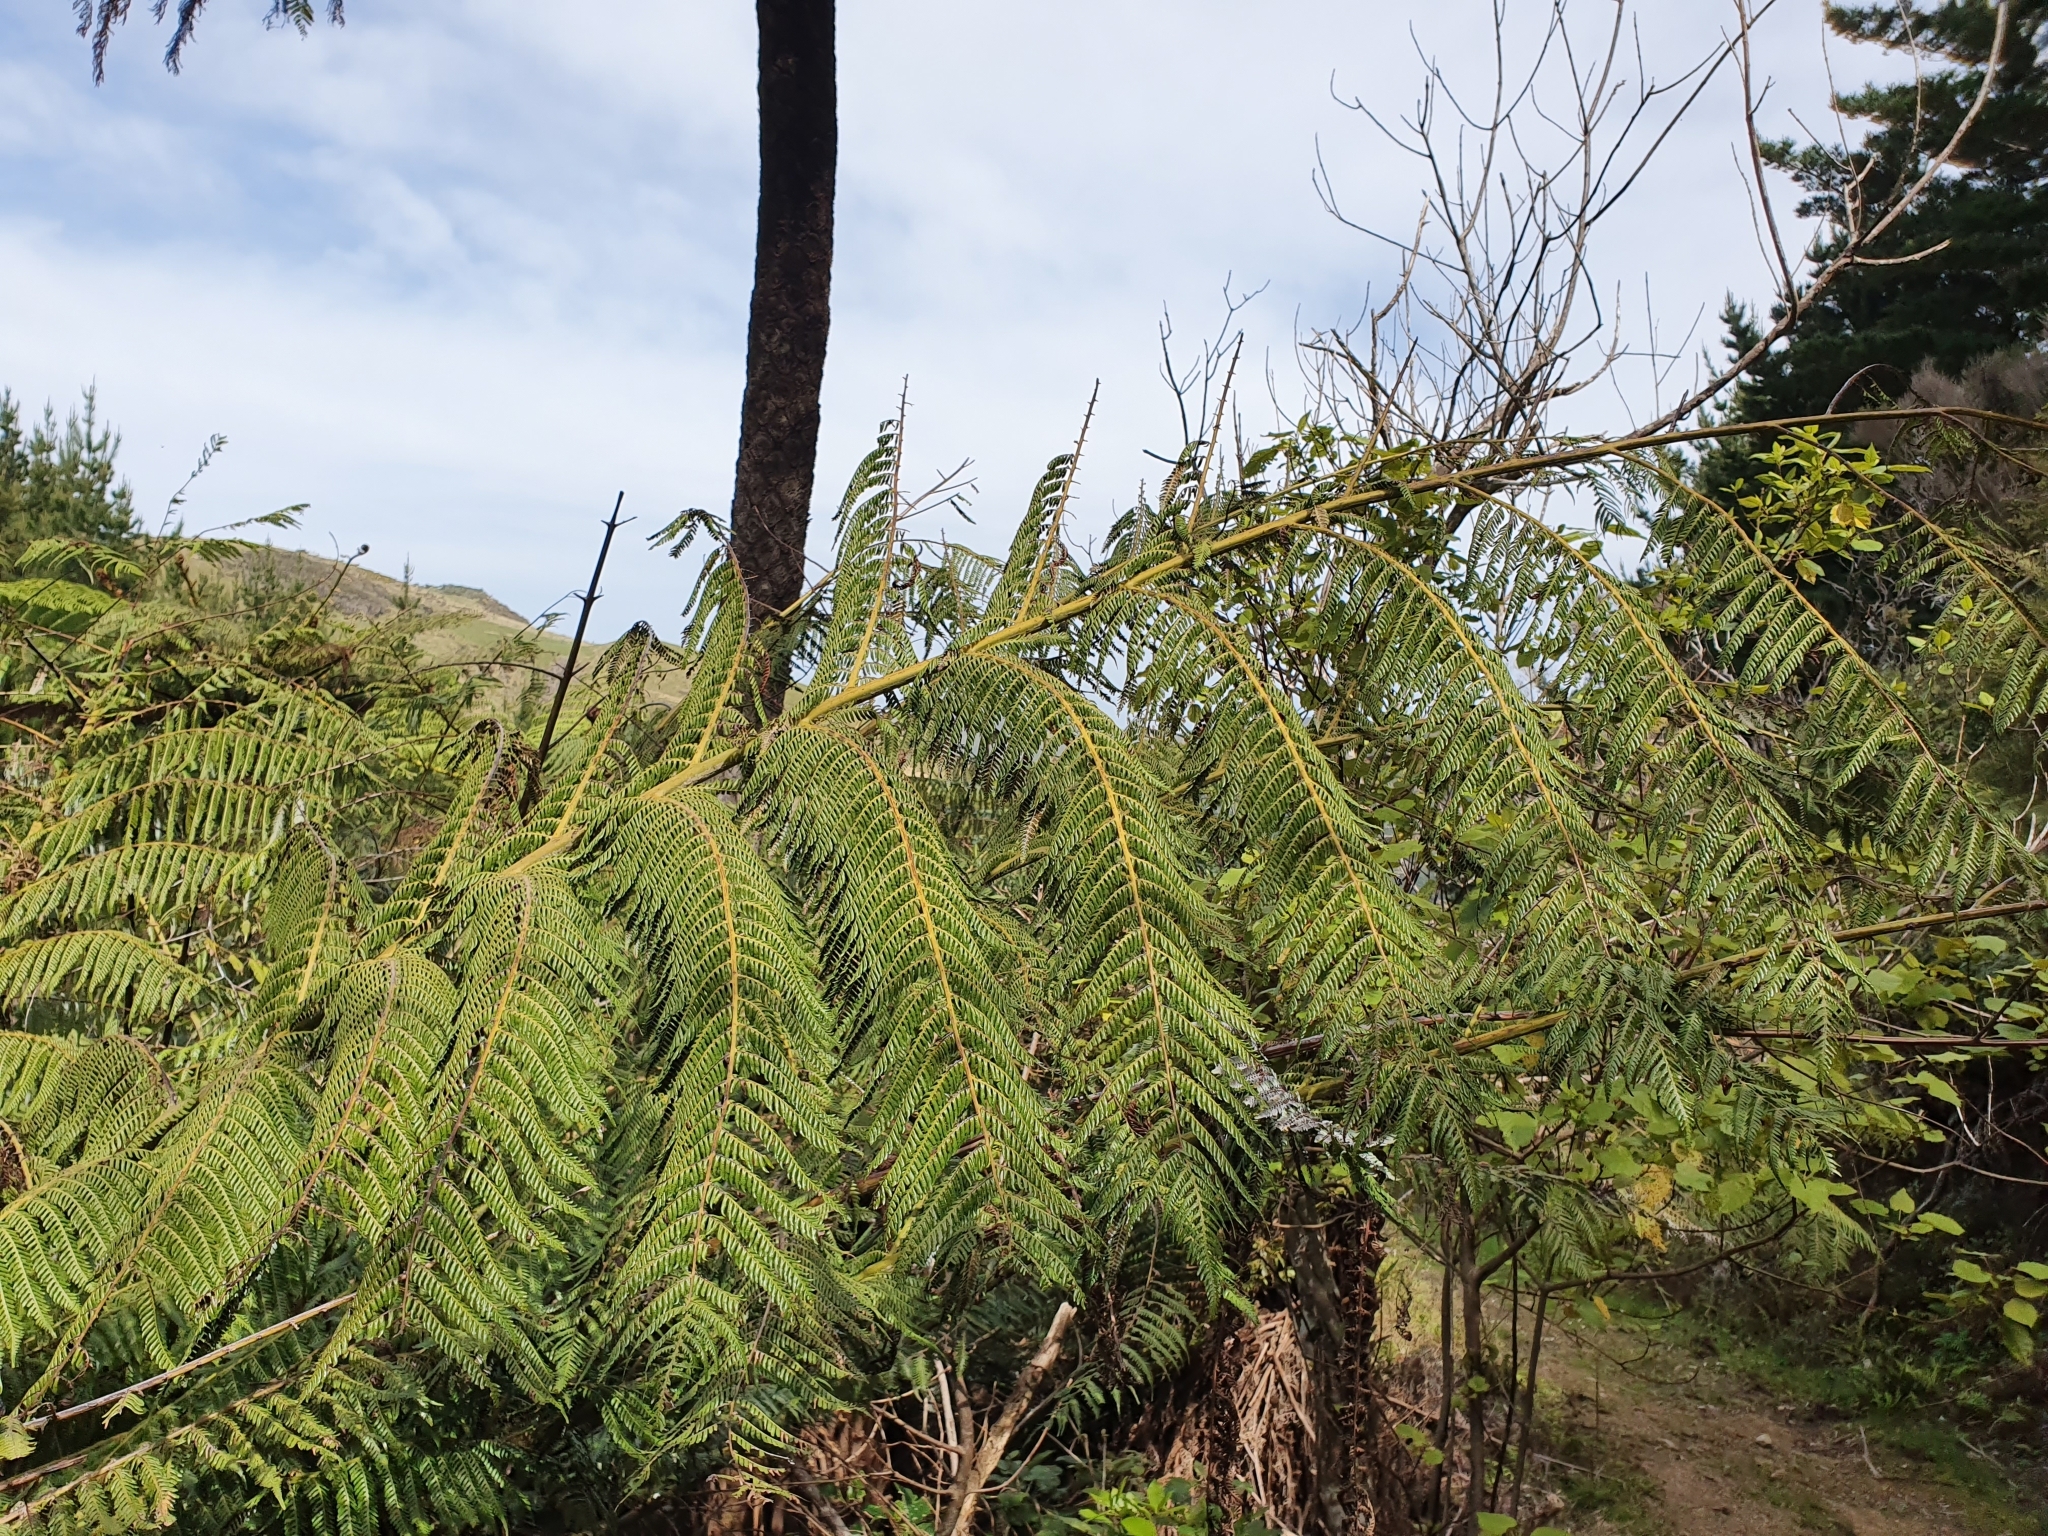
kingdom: Plantae
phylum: Tracheophyta
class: Polypodiopsida
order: Cyatheales
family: Cyatheaceae
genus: Alsophila
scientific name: Alsophila dealbata
